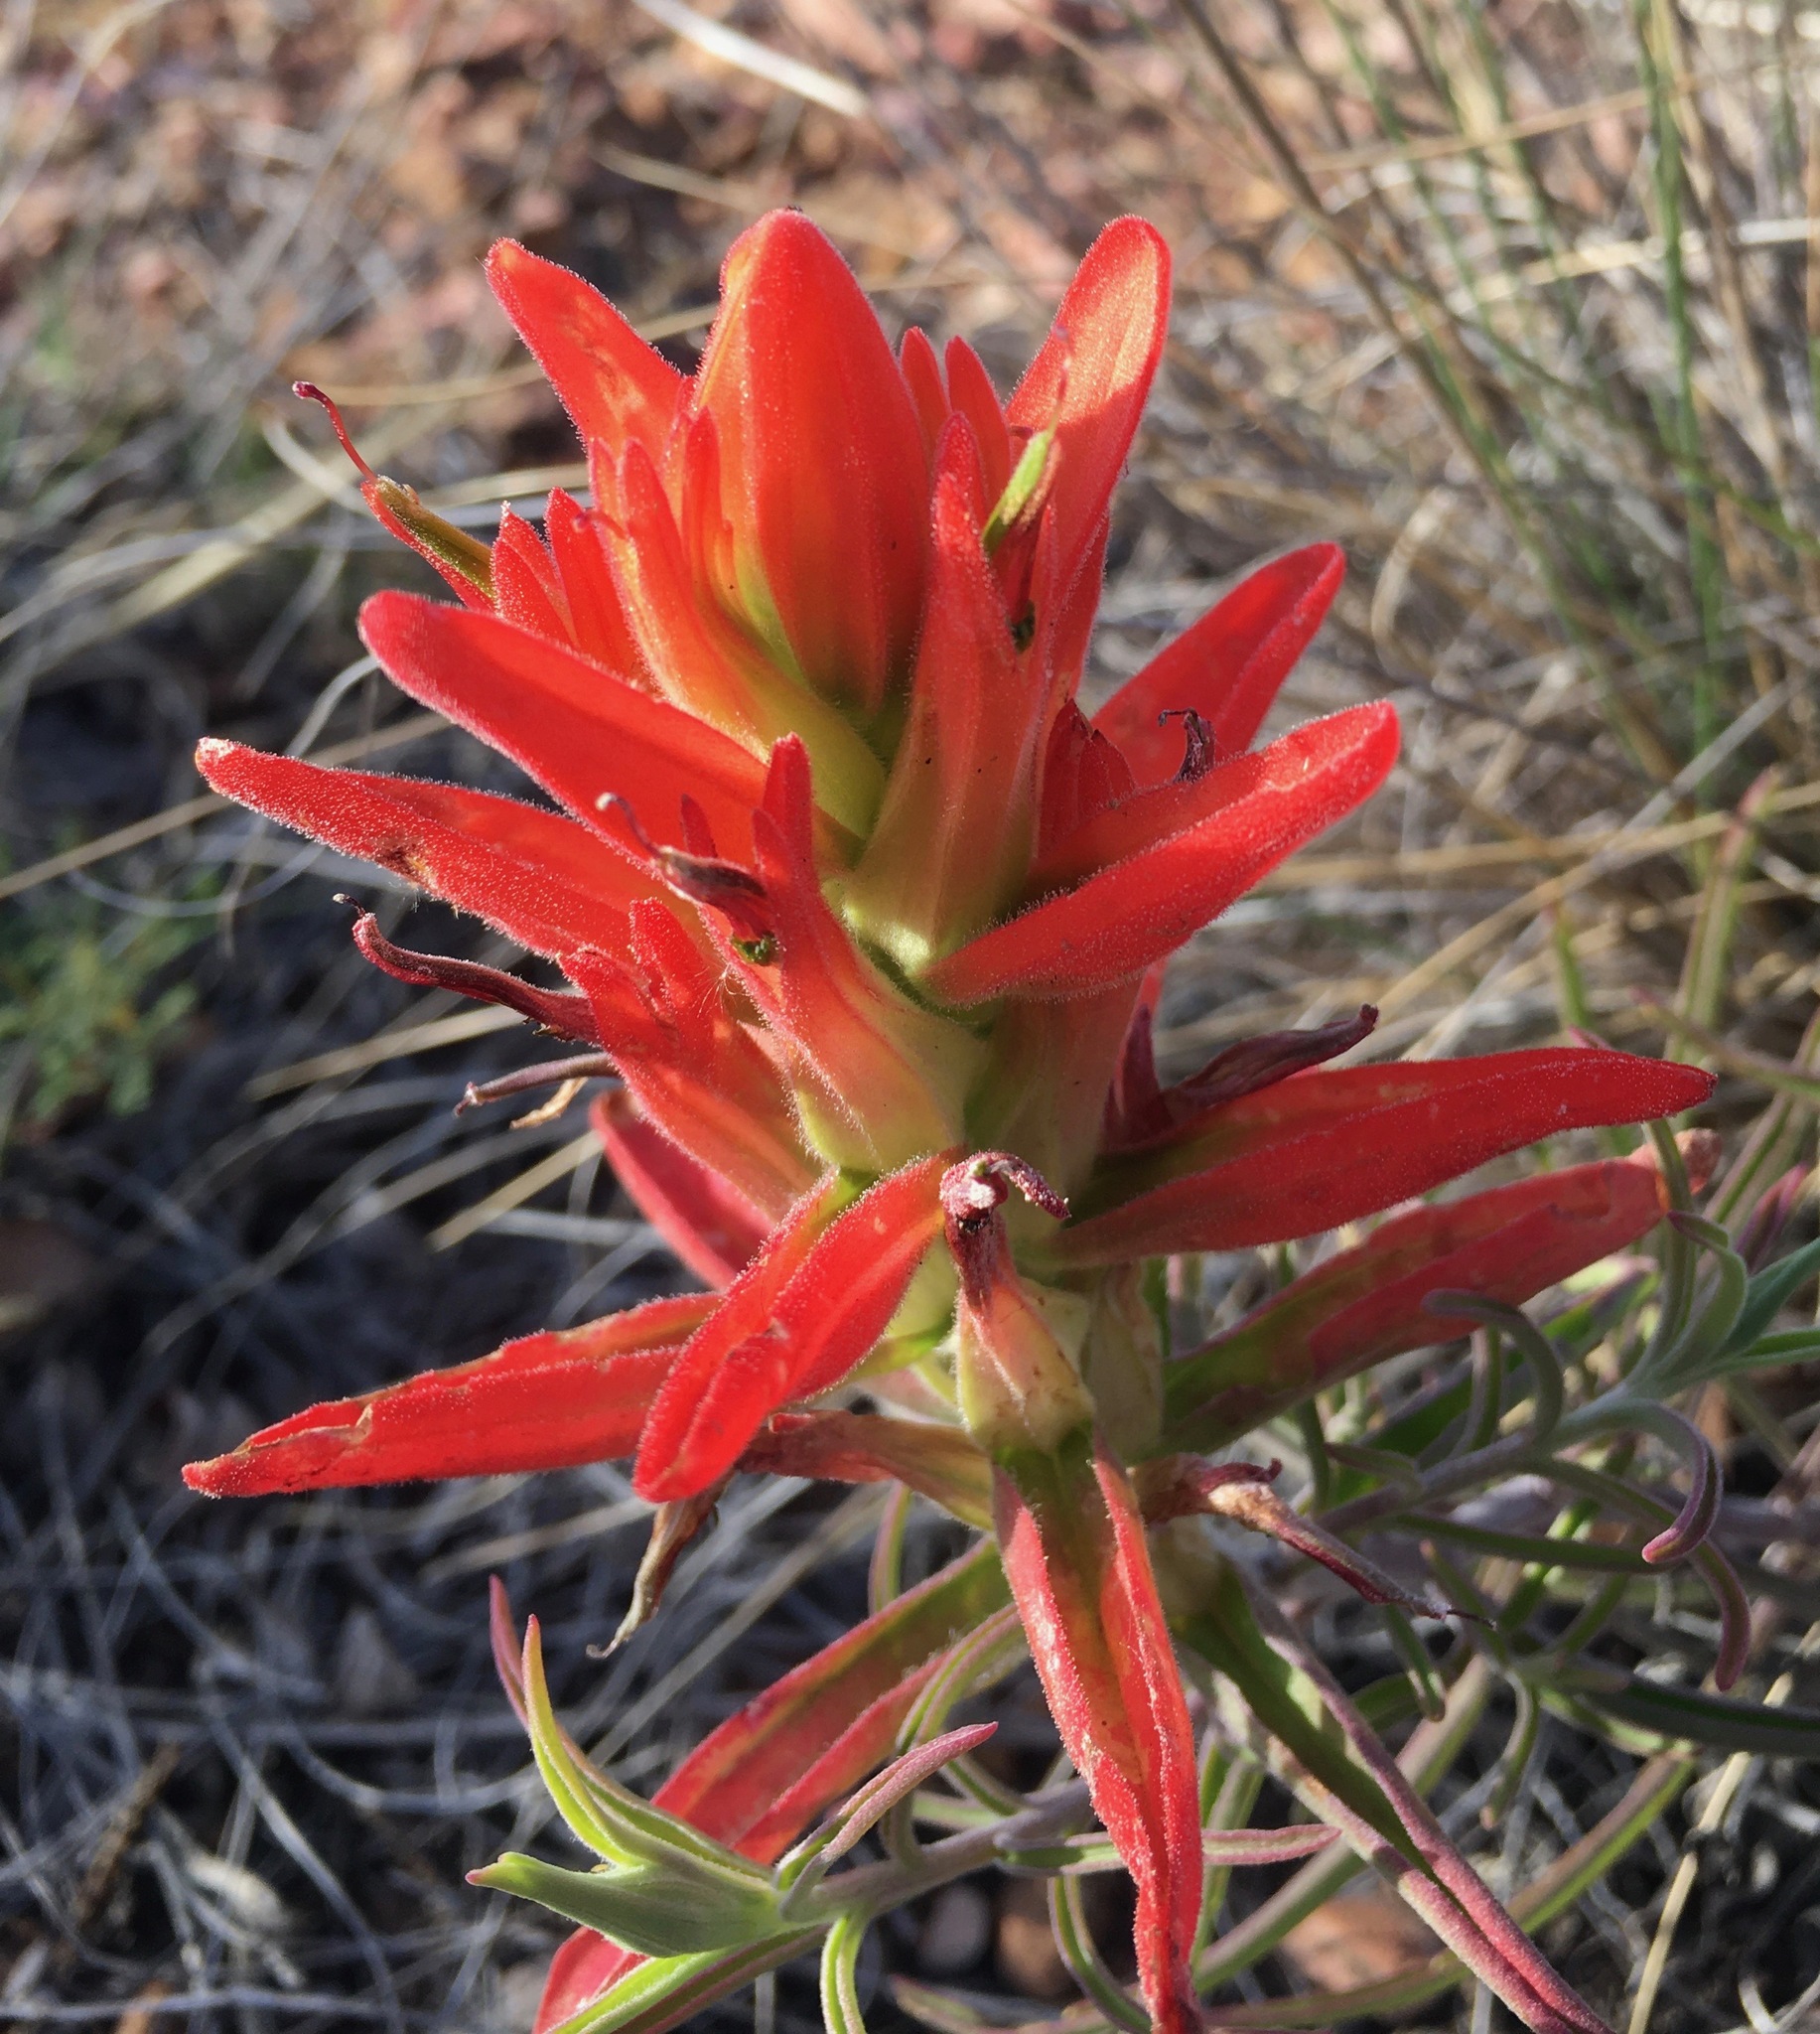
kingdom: Plantae
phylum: Tracheophyta
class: Magnoliopsida
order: Lamiales
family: Orobanchaceae
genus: Castilleja
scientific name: Castilleja integra
